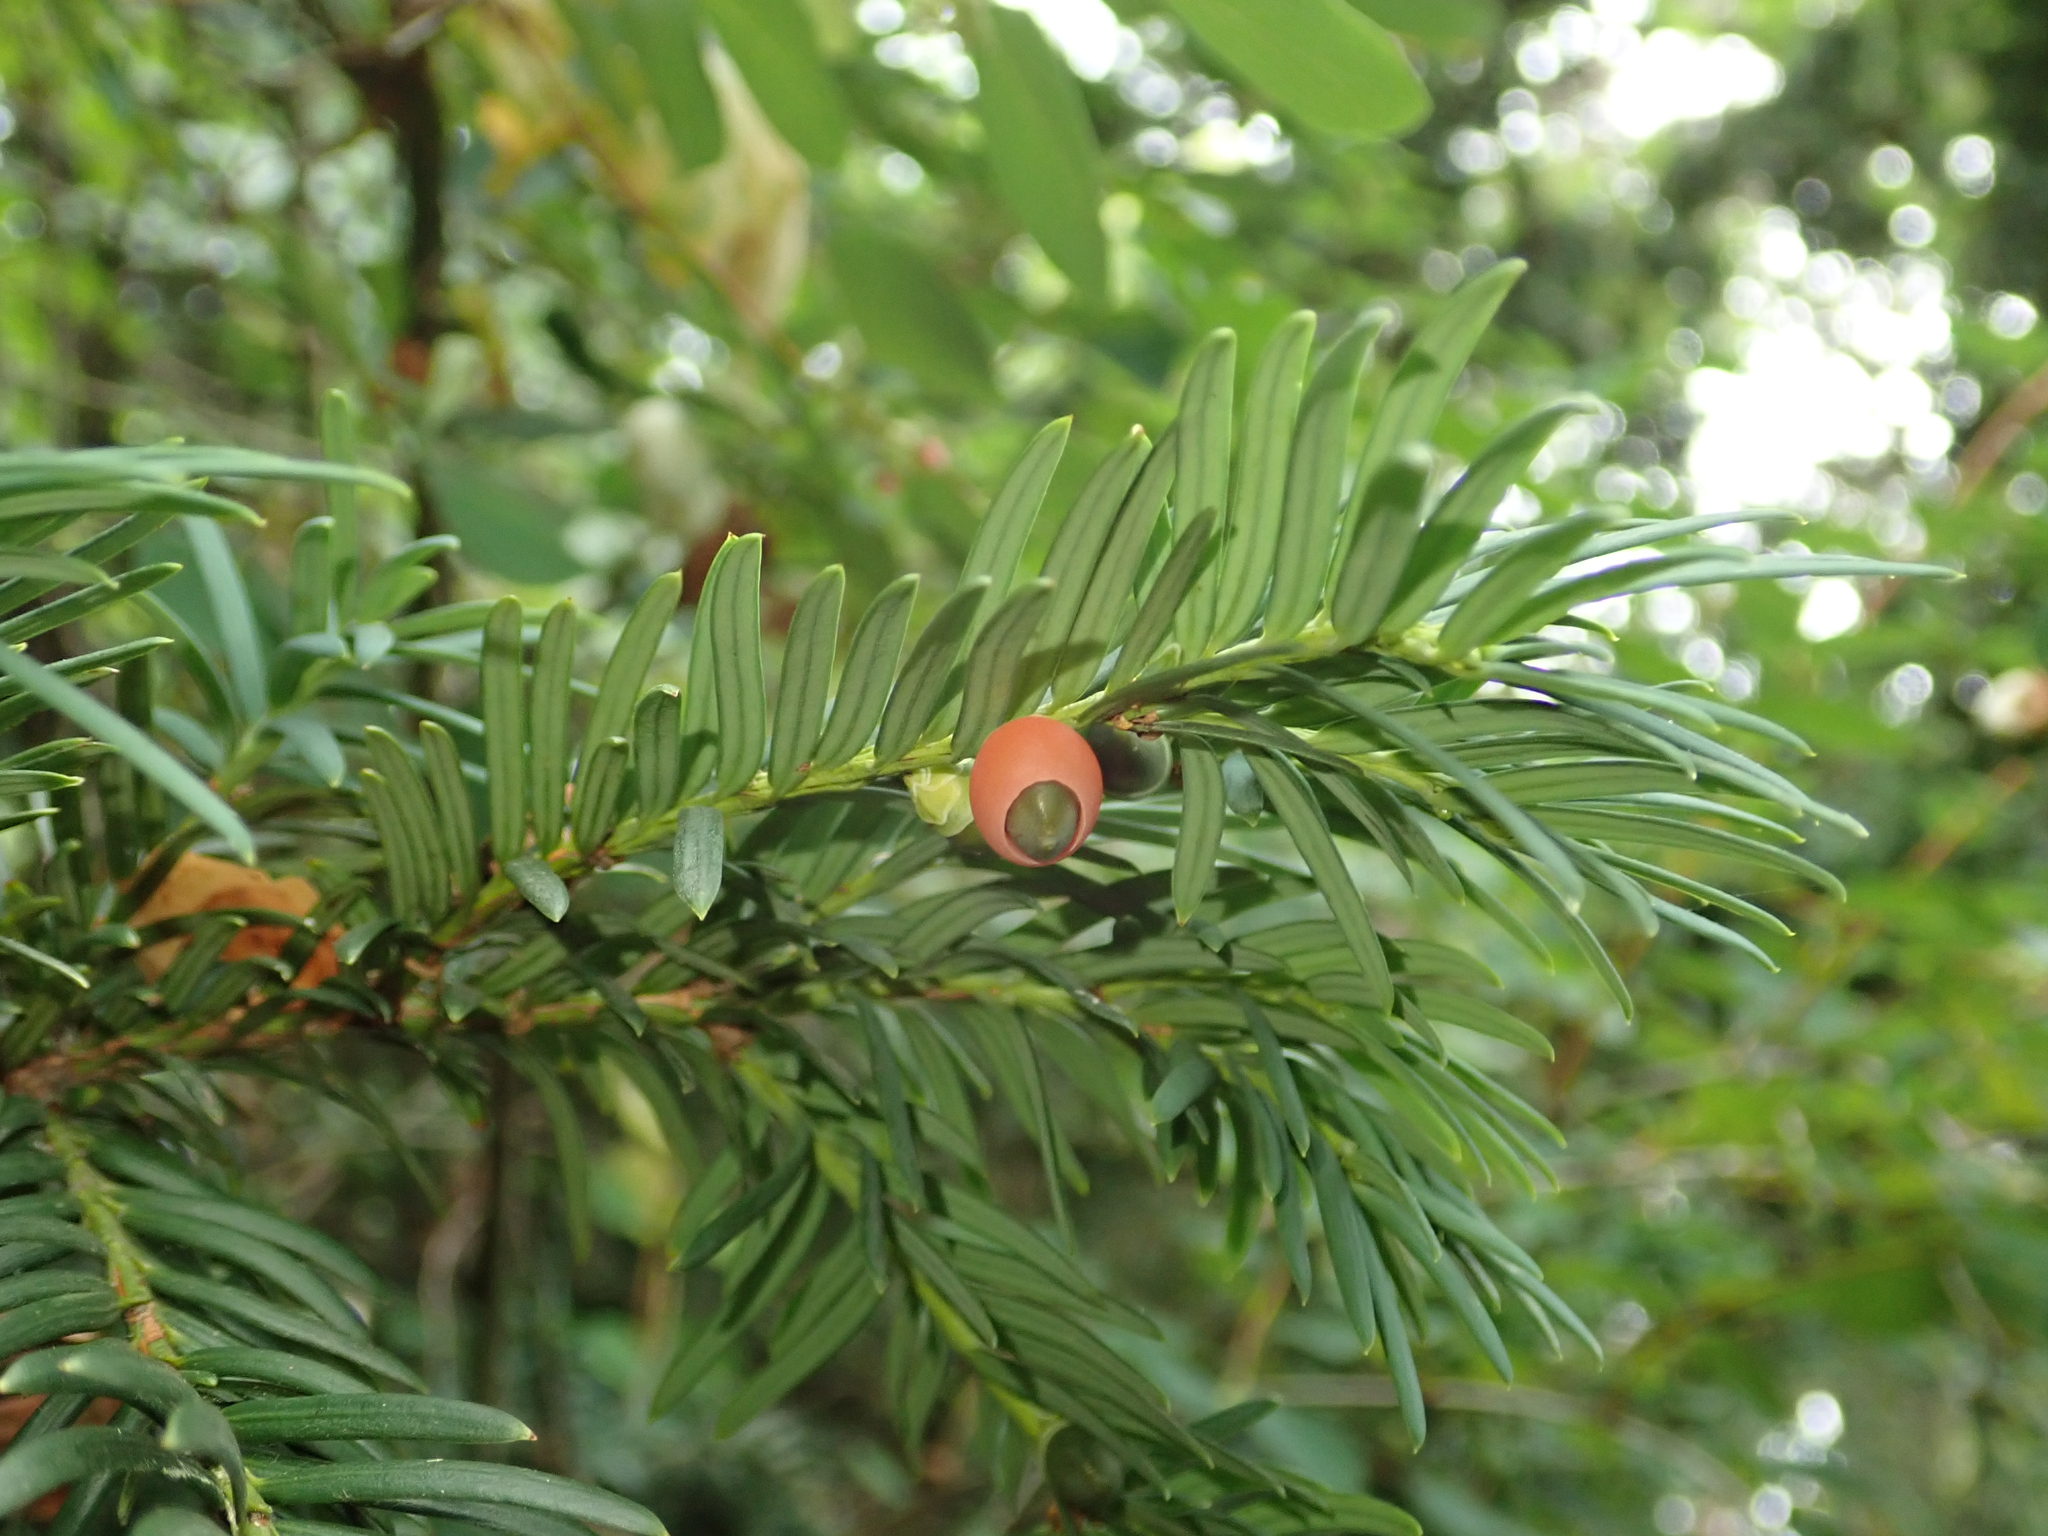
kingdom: Plantae
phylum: Tracheophyta
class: Pinopsida
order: Pinales
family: Taxaceae
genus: Taxus
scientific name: Taxus baccata
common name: Yew
